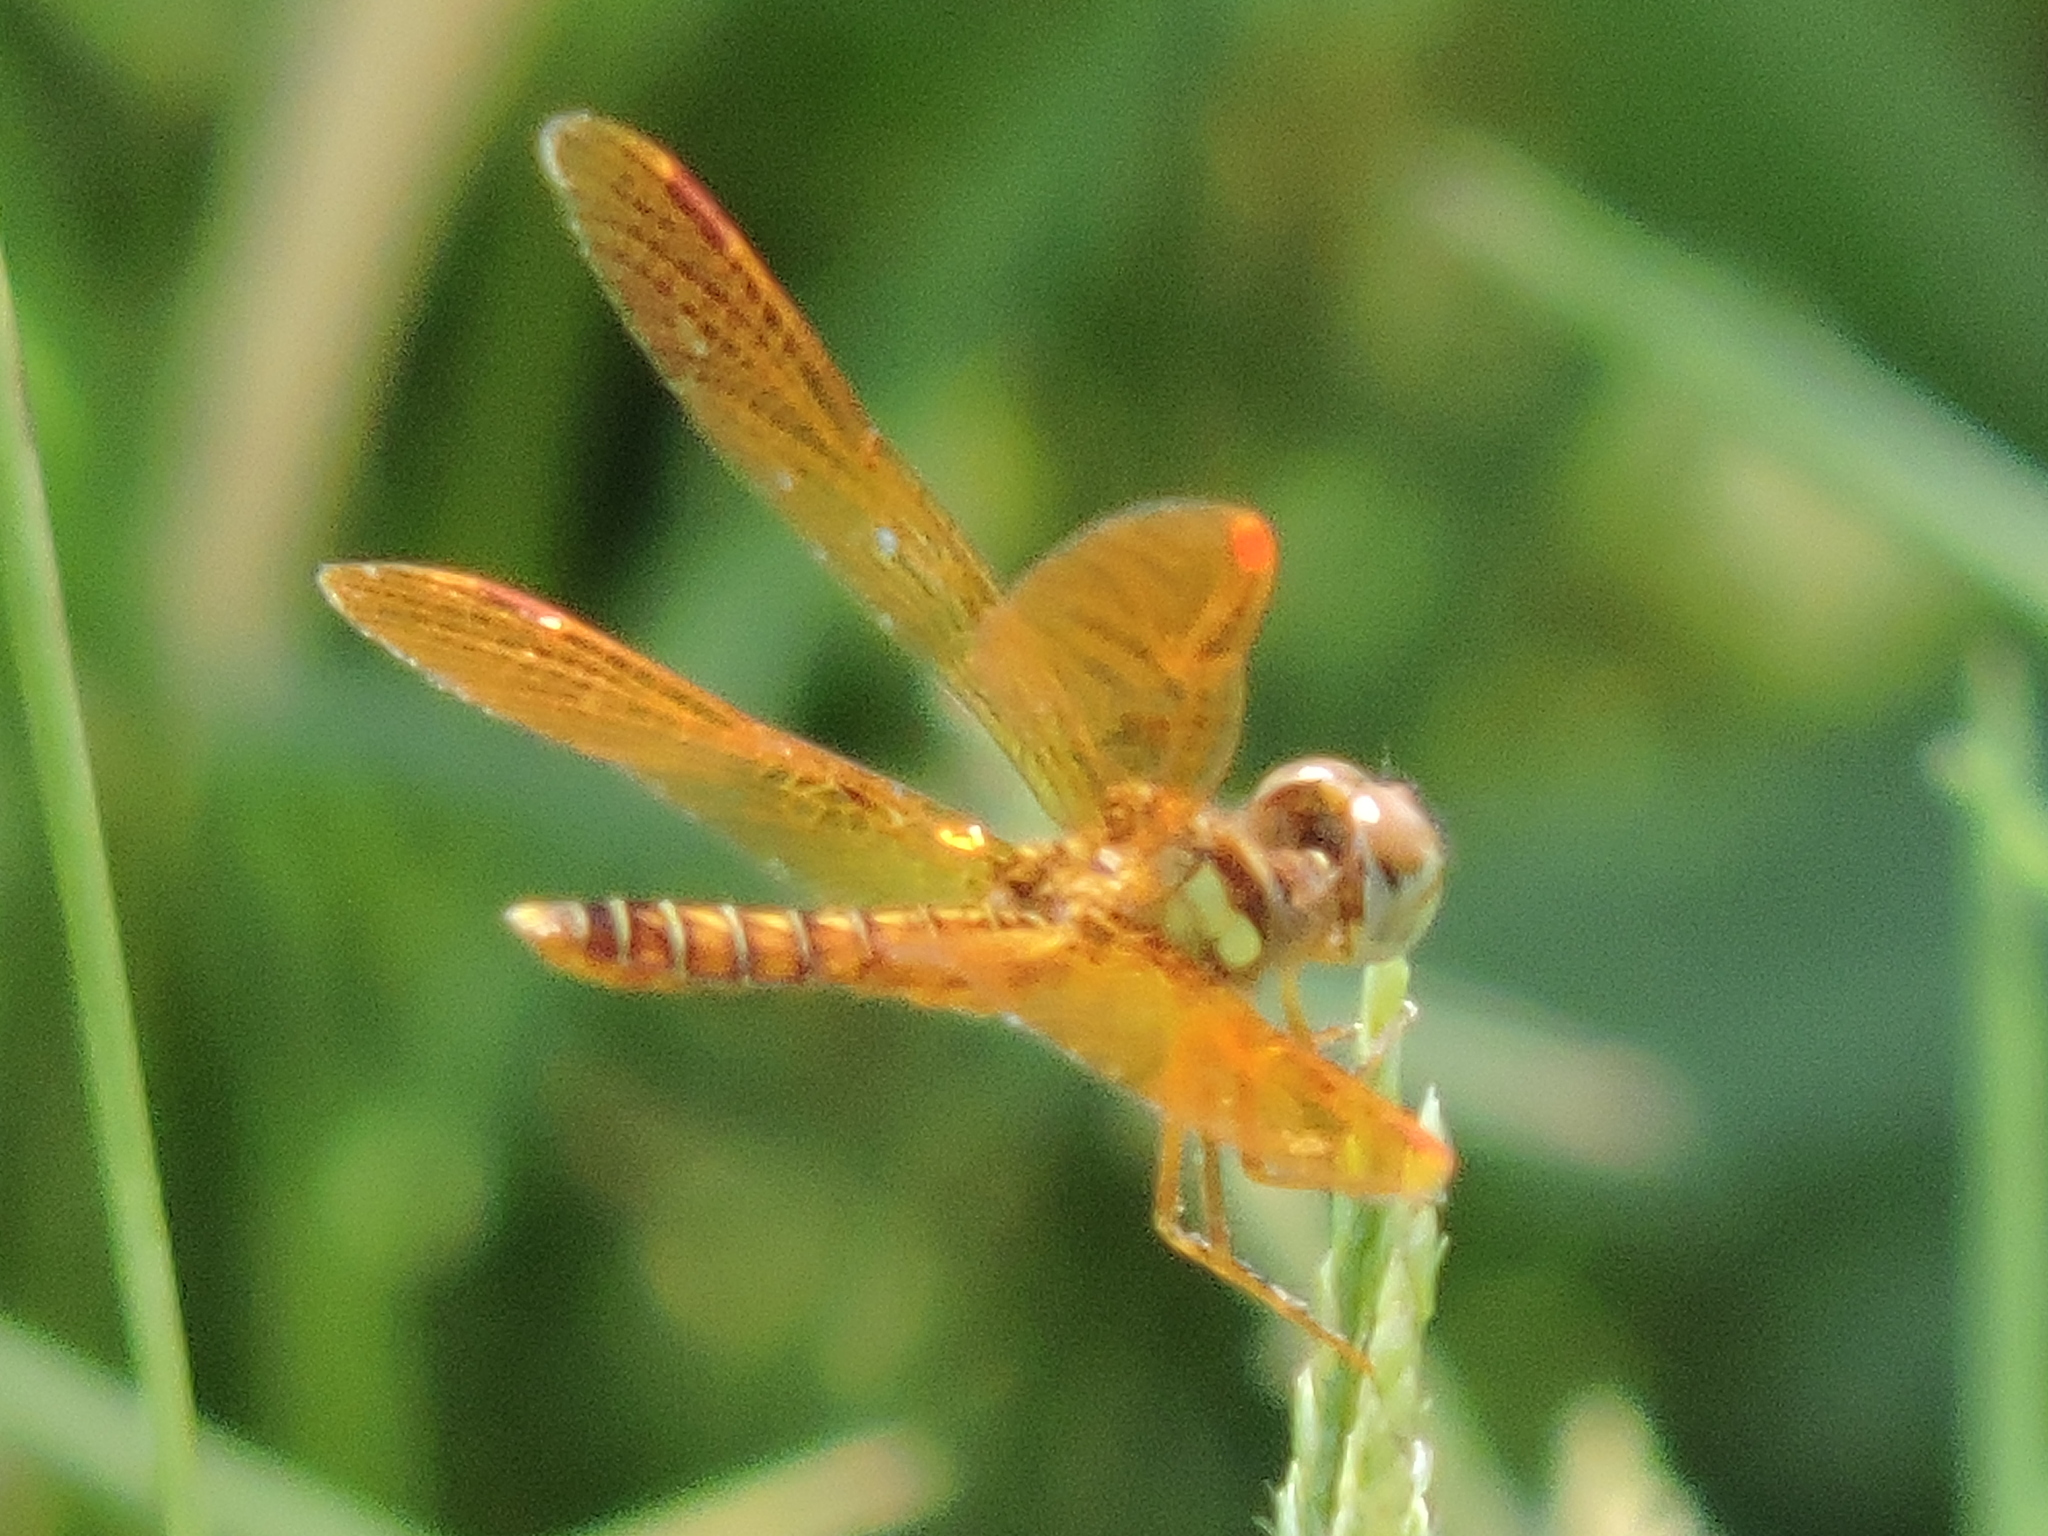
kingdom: Animalia
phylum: Arthropoda
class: Insecta
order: Odonata
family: Libellulidae
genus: Perithemis
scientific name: Perithemis tenera
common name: Eastern amberwing
